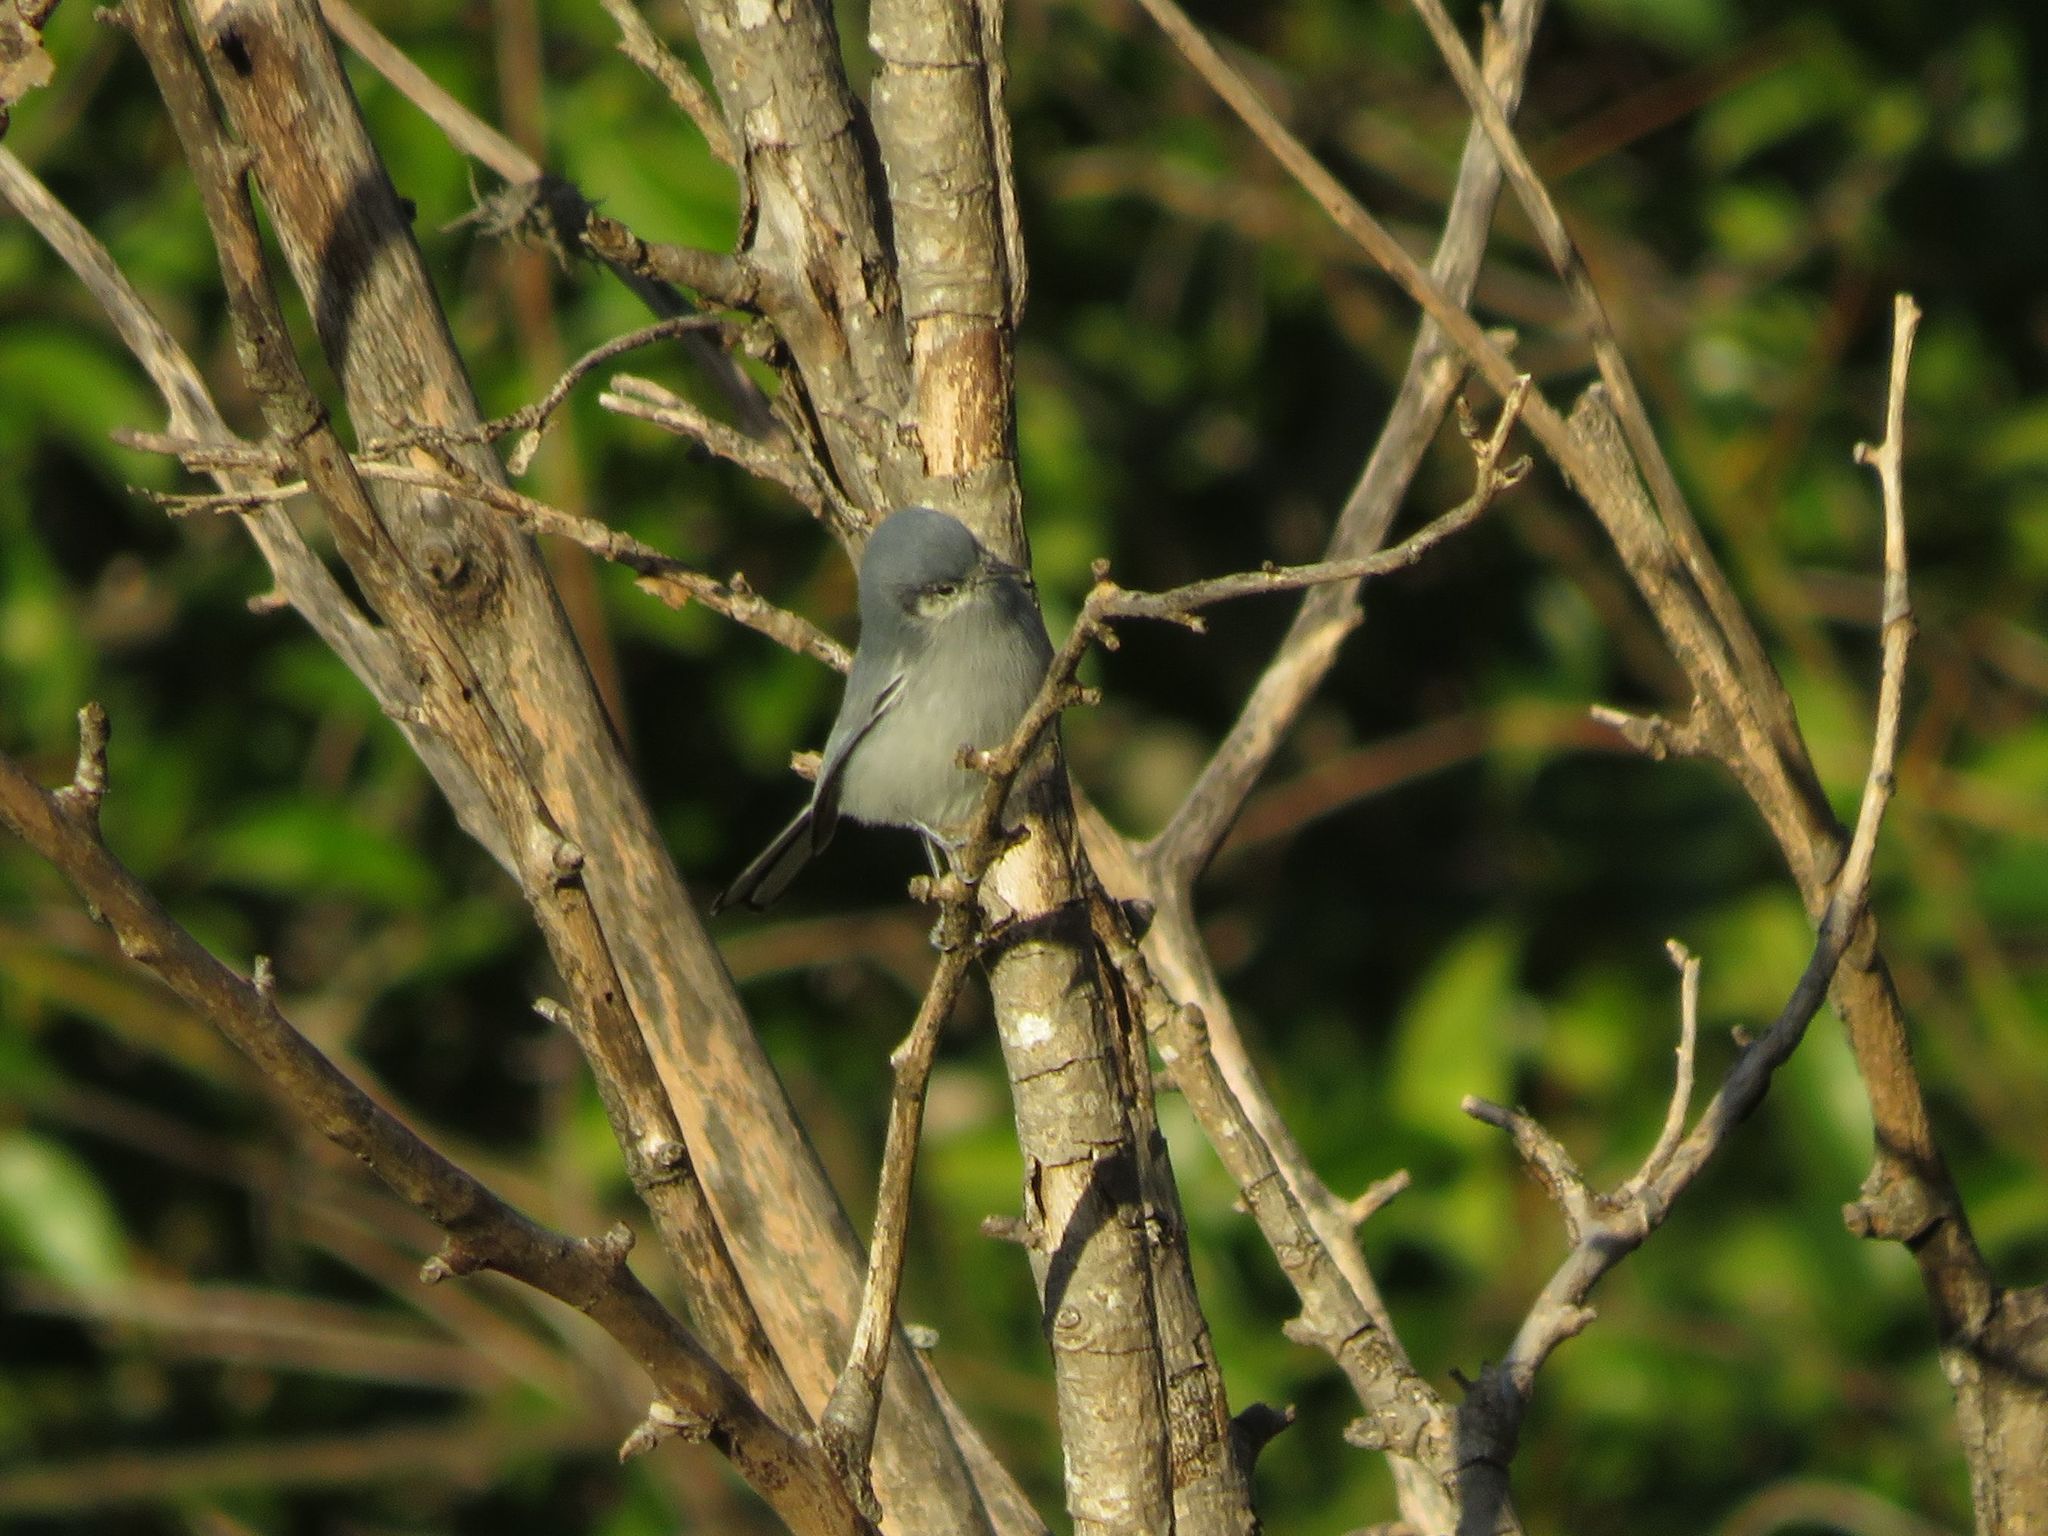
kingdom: Animalia
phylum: Chordata
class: Aves
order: Passeriformes
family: Polioptilidae
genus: Polioptila
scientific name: Polioptila dumicola
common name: Masked gnatcatcher
